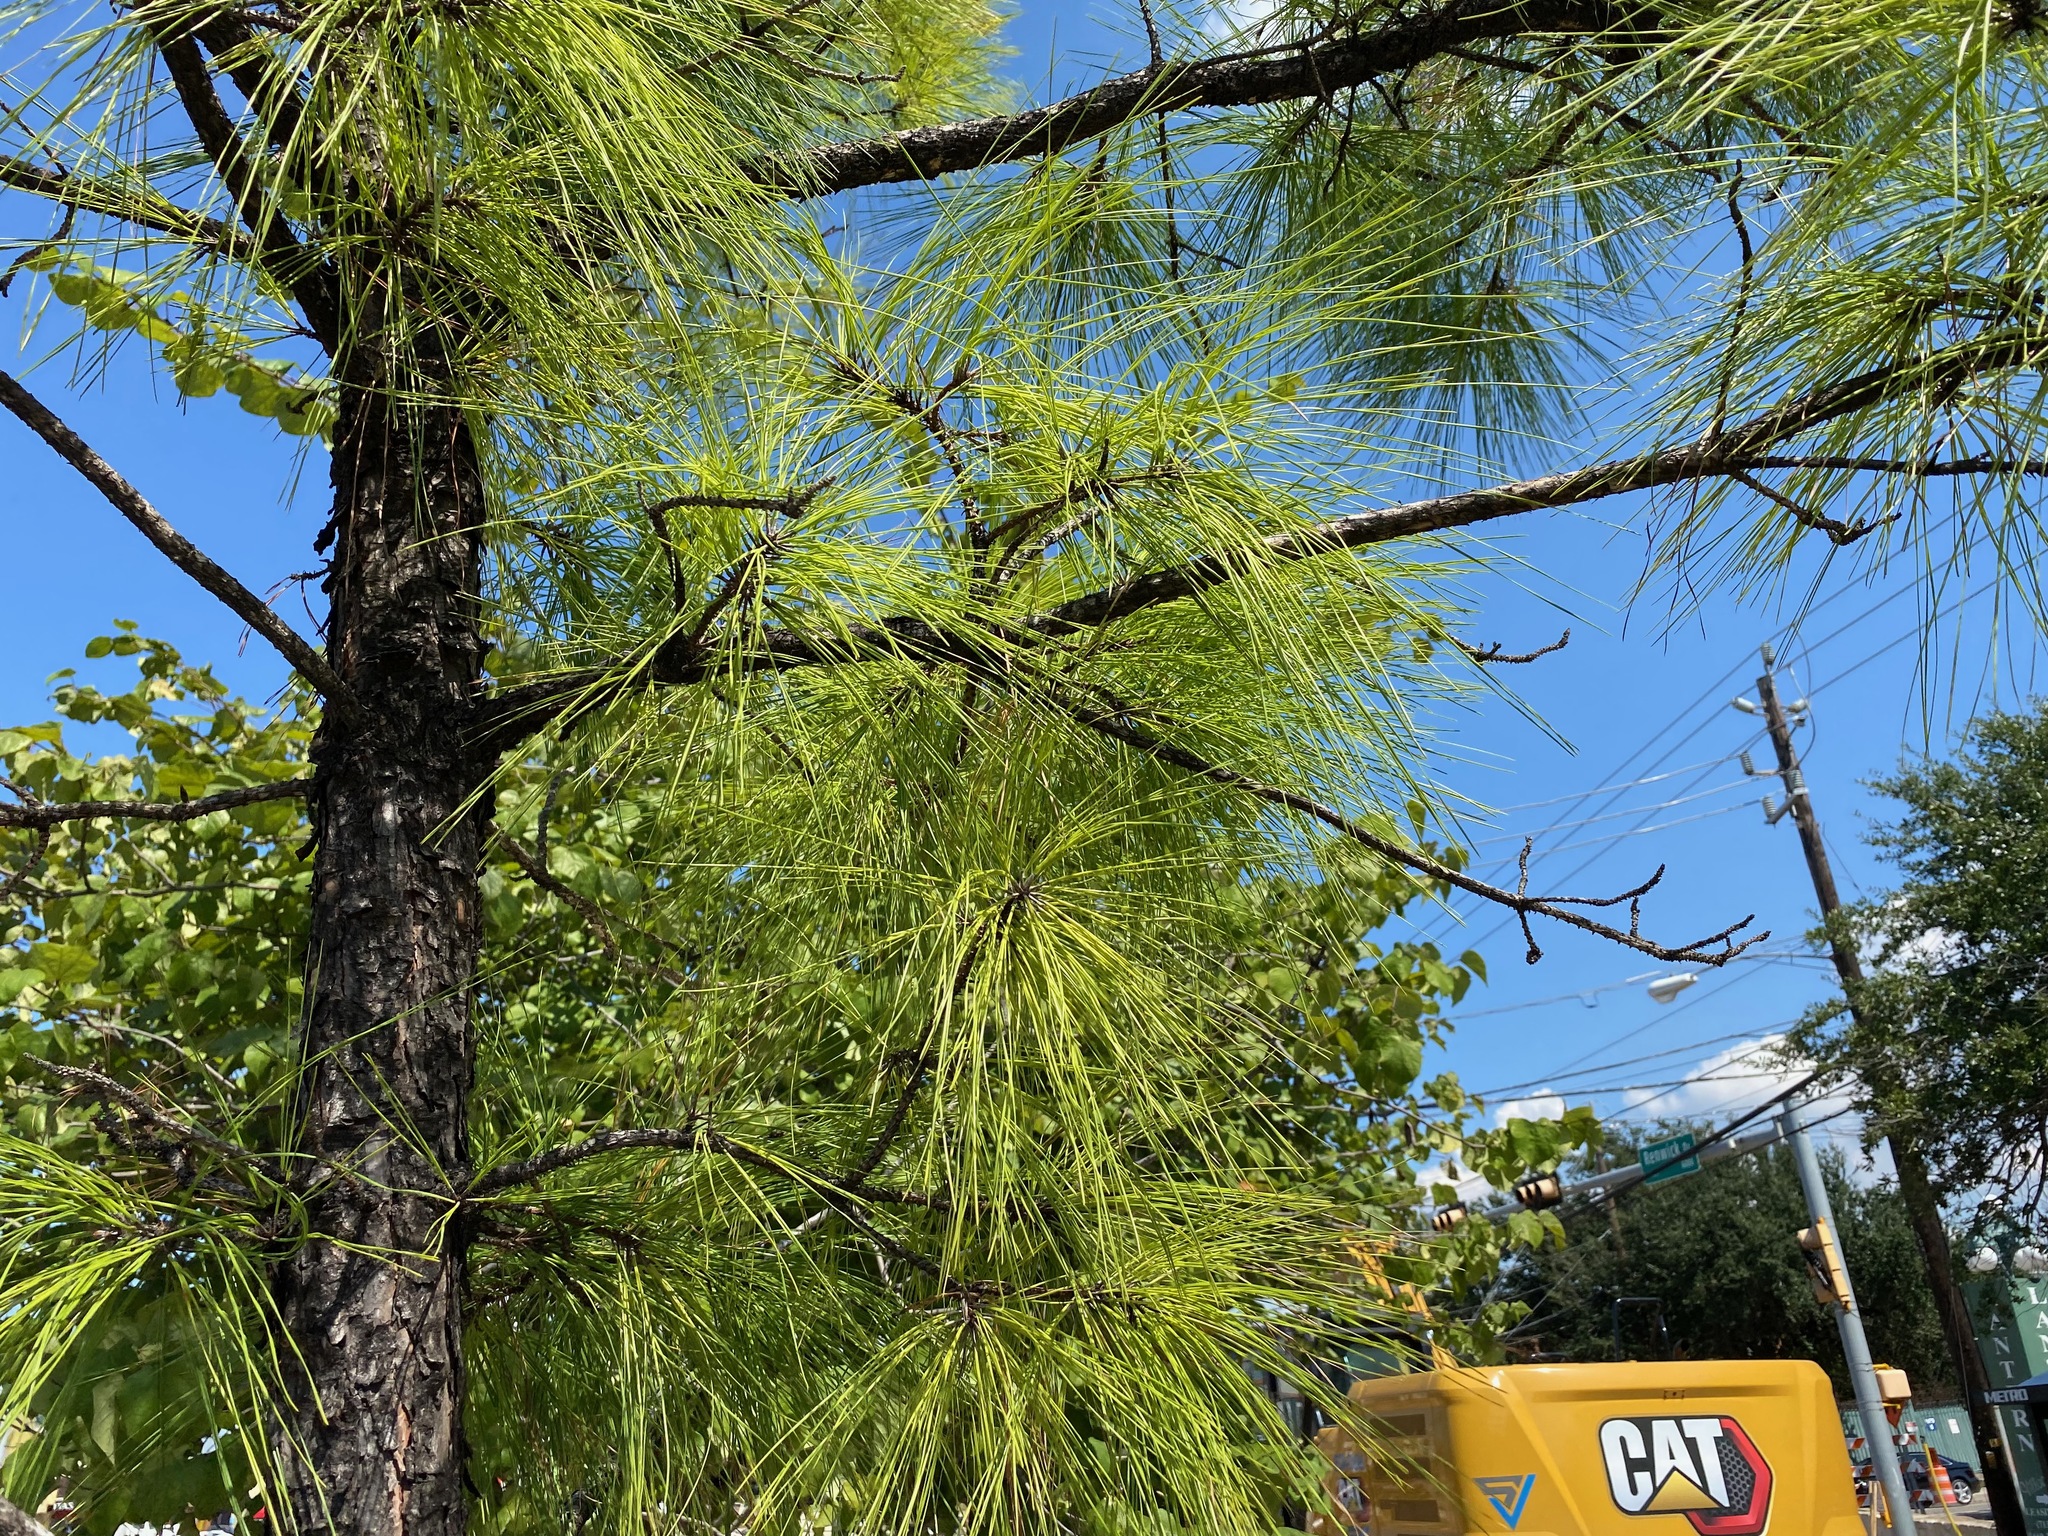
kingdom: Plantae
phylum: Tracheophyta
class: Pinopsida
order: Pinales
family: Pinaceae
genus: Pinus
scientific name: Pinus taeda
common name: Loblolly pine
